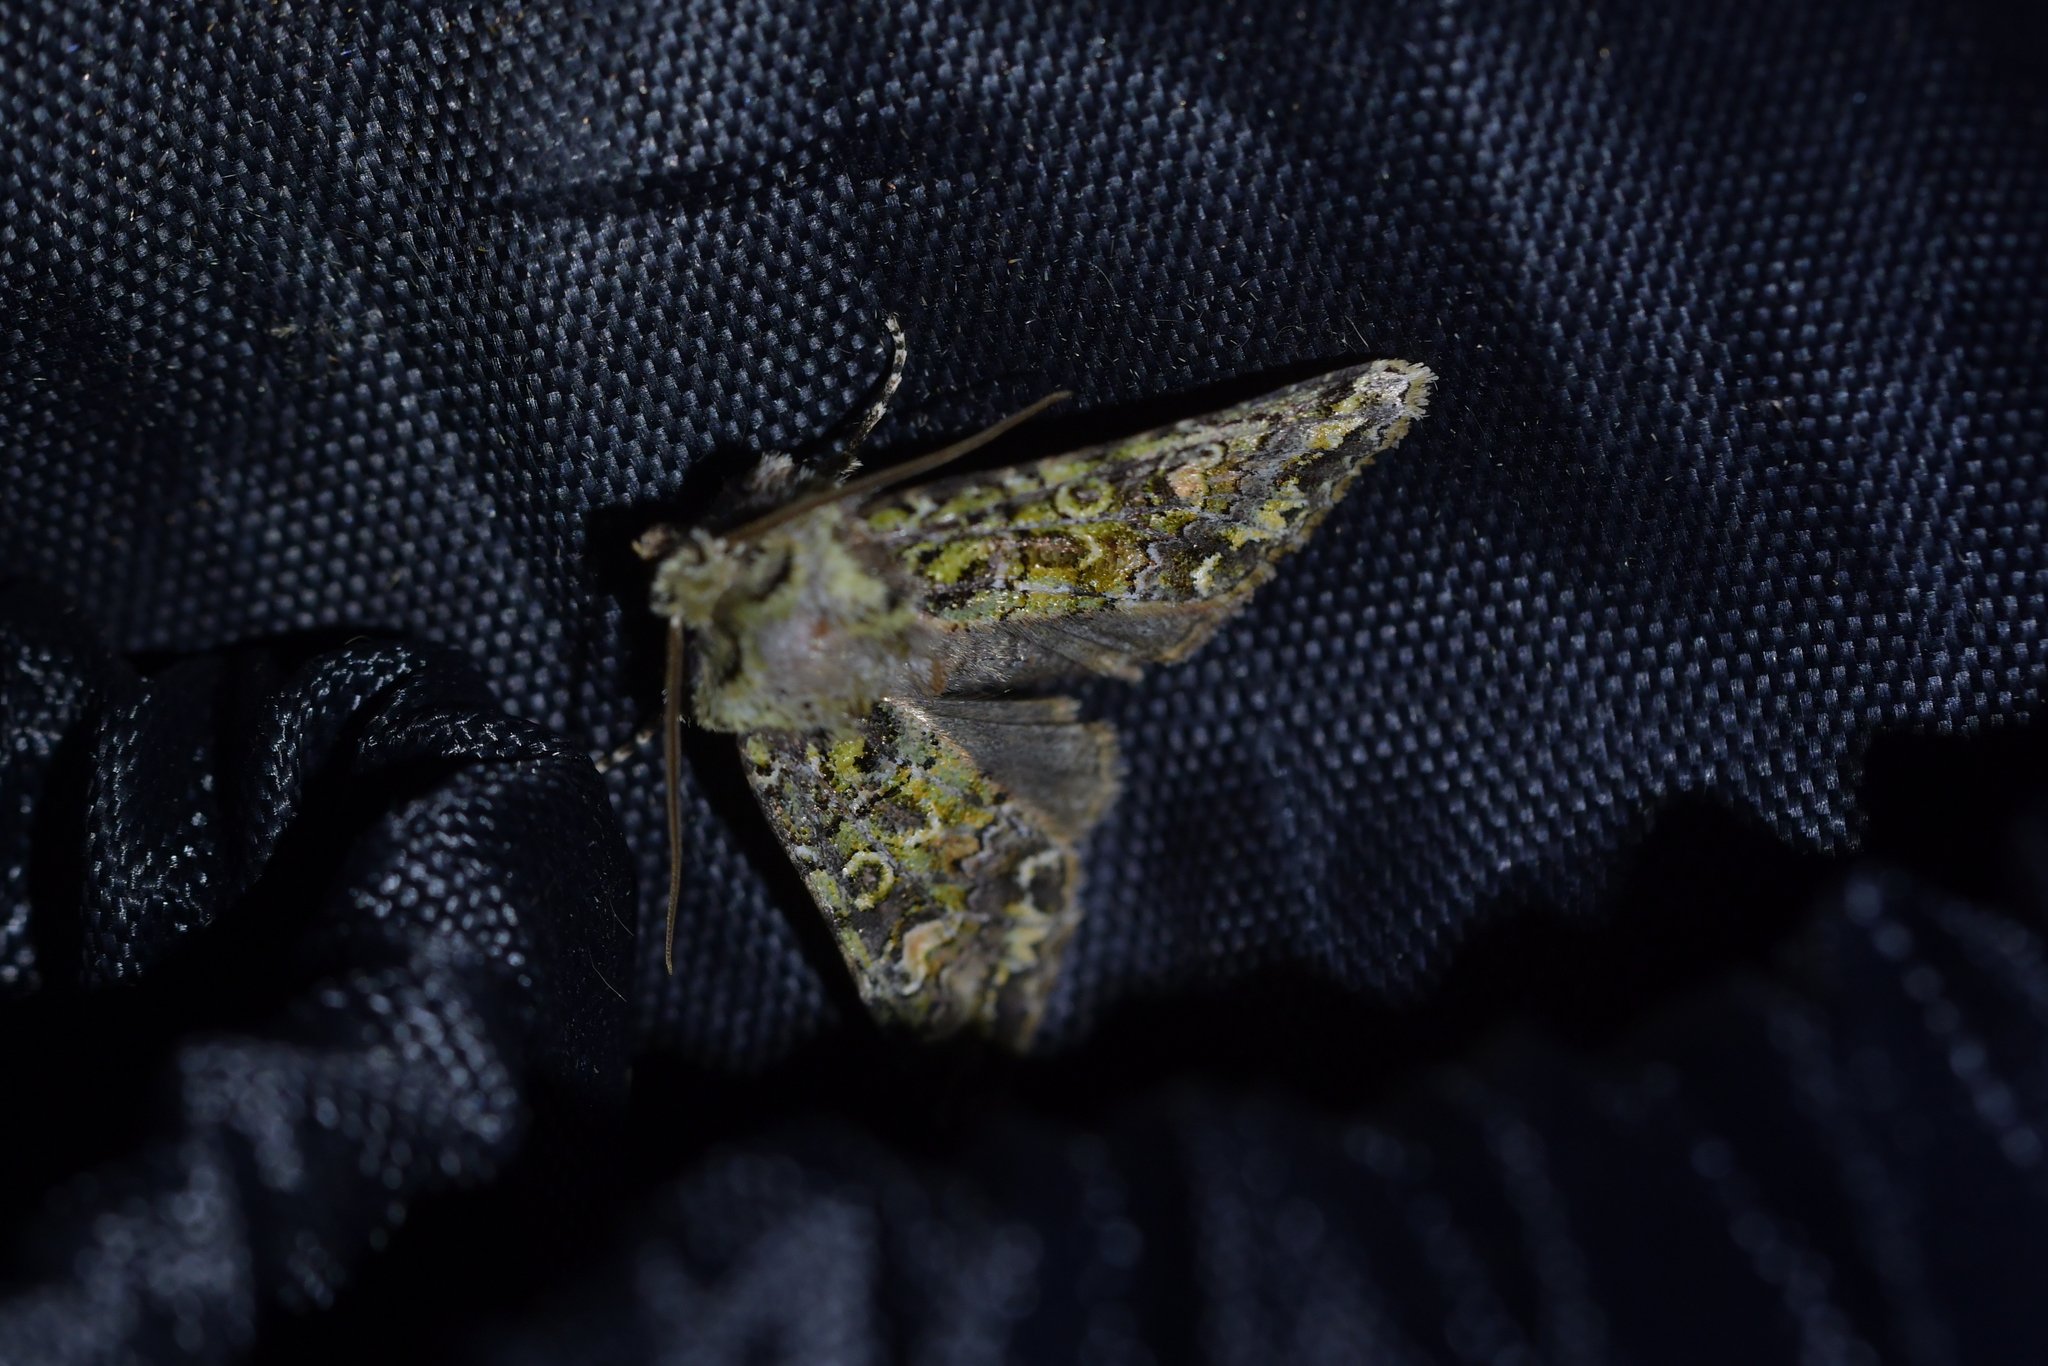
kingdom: Animalia
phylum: Arthropoda
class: Insecta
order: Lepidoptera
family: Noctuidae
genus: Ichneutica
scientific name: Ichneutica
